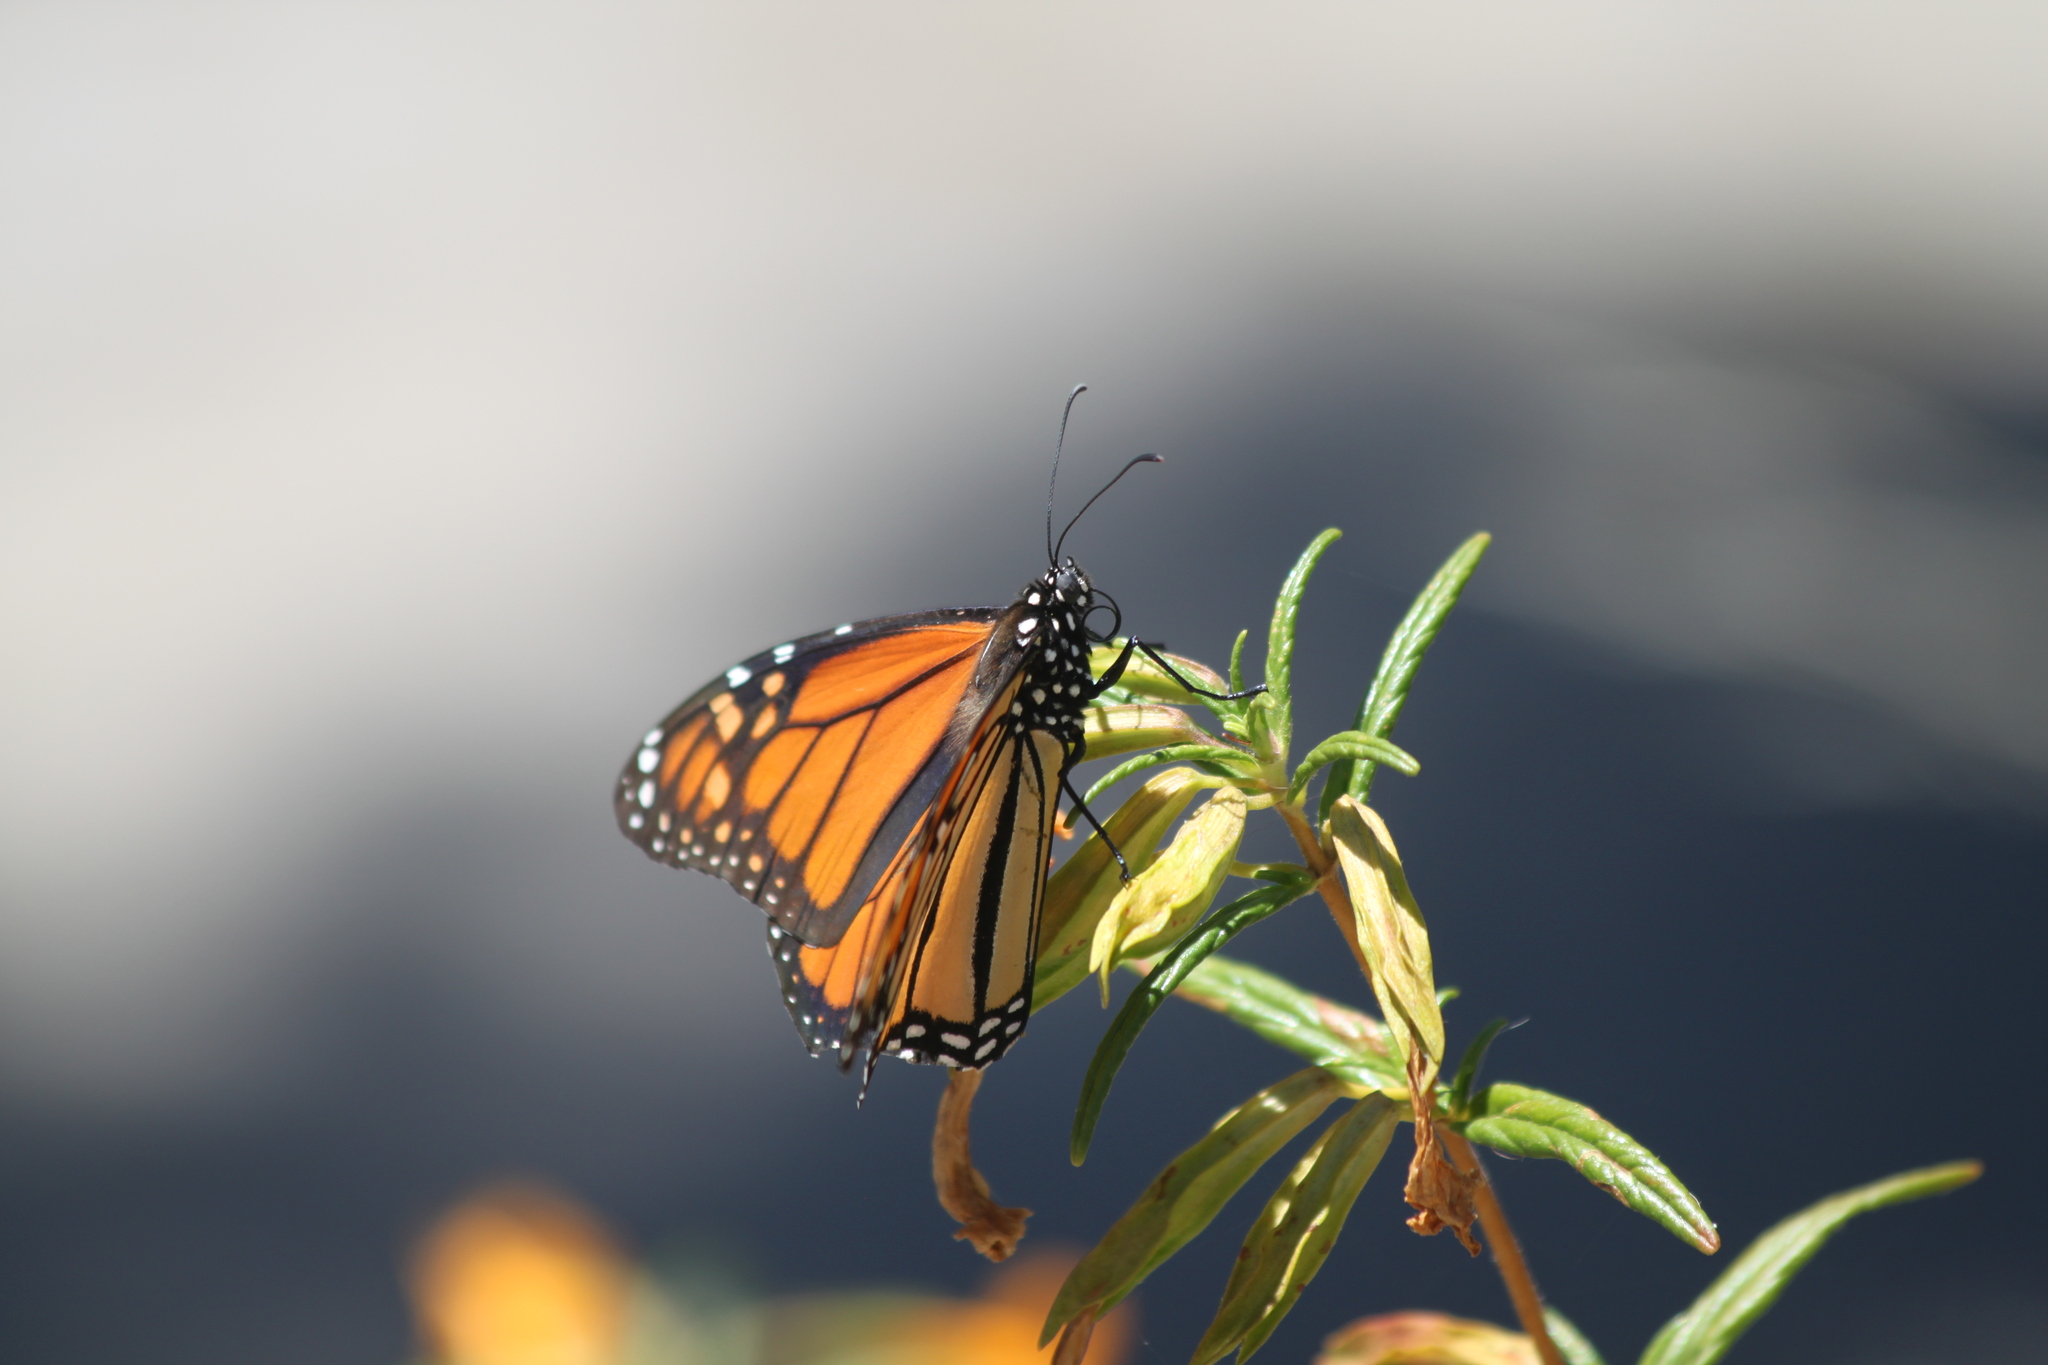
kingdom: Animalia
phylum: Arthropoda
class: Insecta
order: Lepidoptera
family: Nymphalidae
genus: Danaus
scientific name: Danaus plexippus
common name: Monarch
